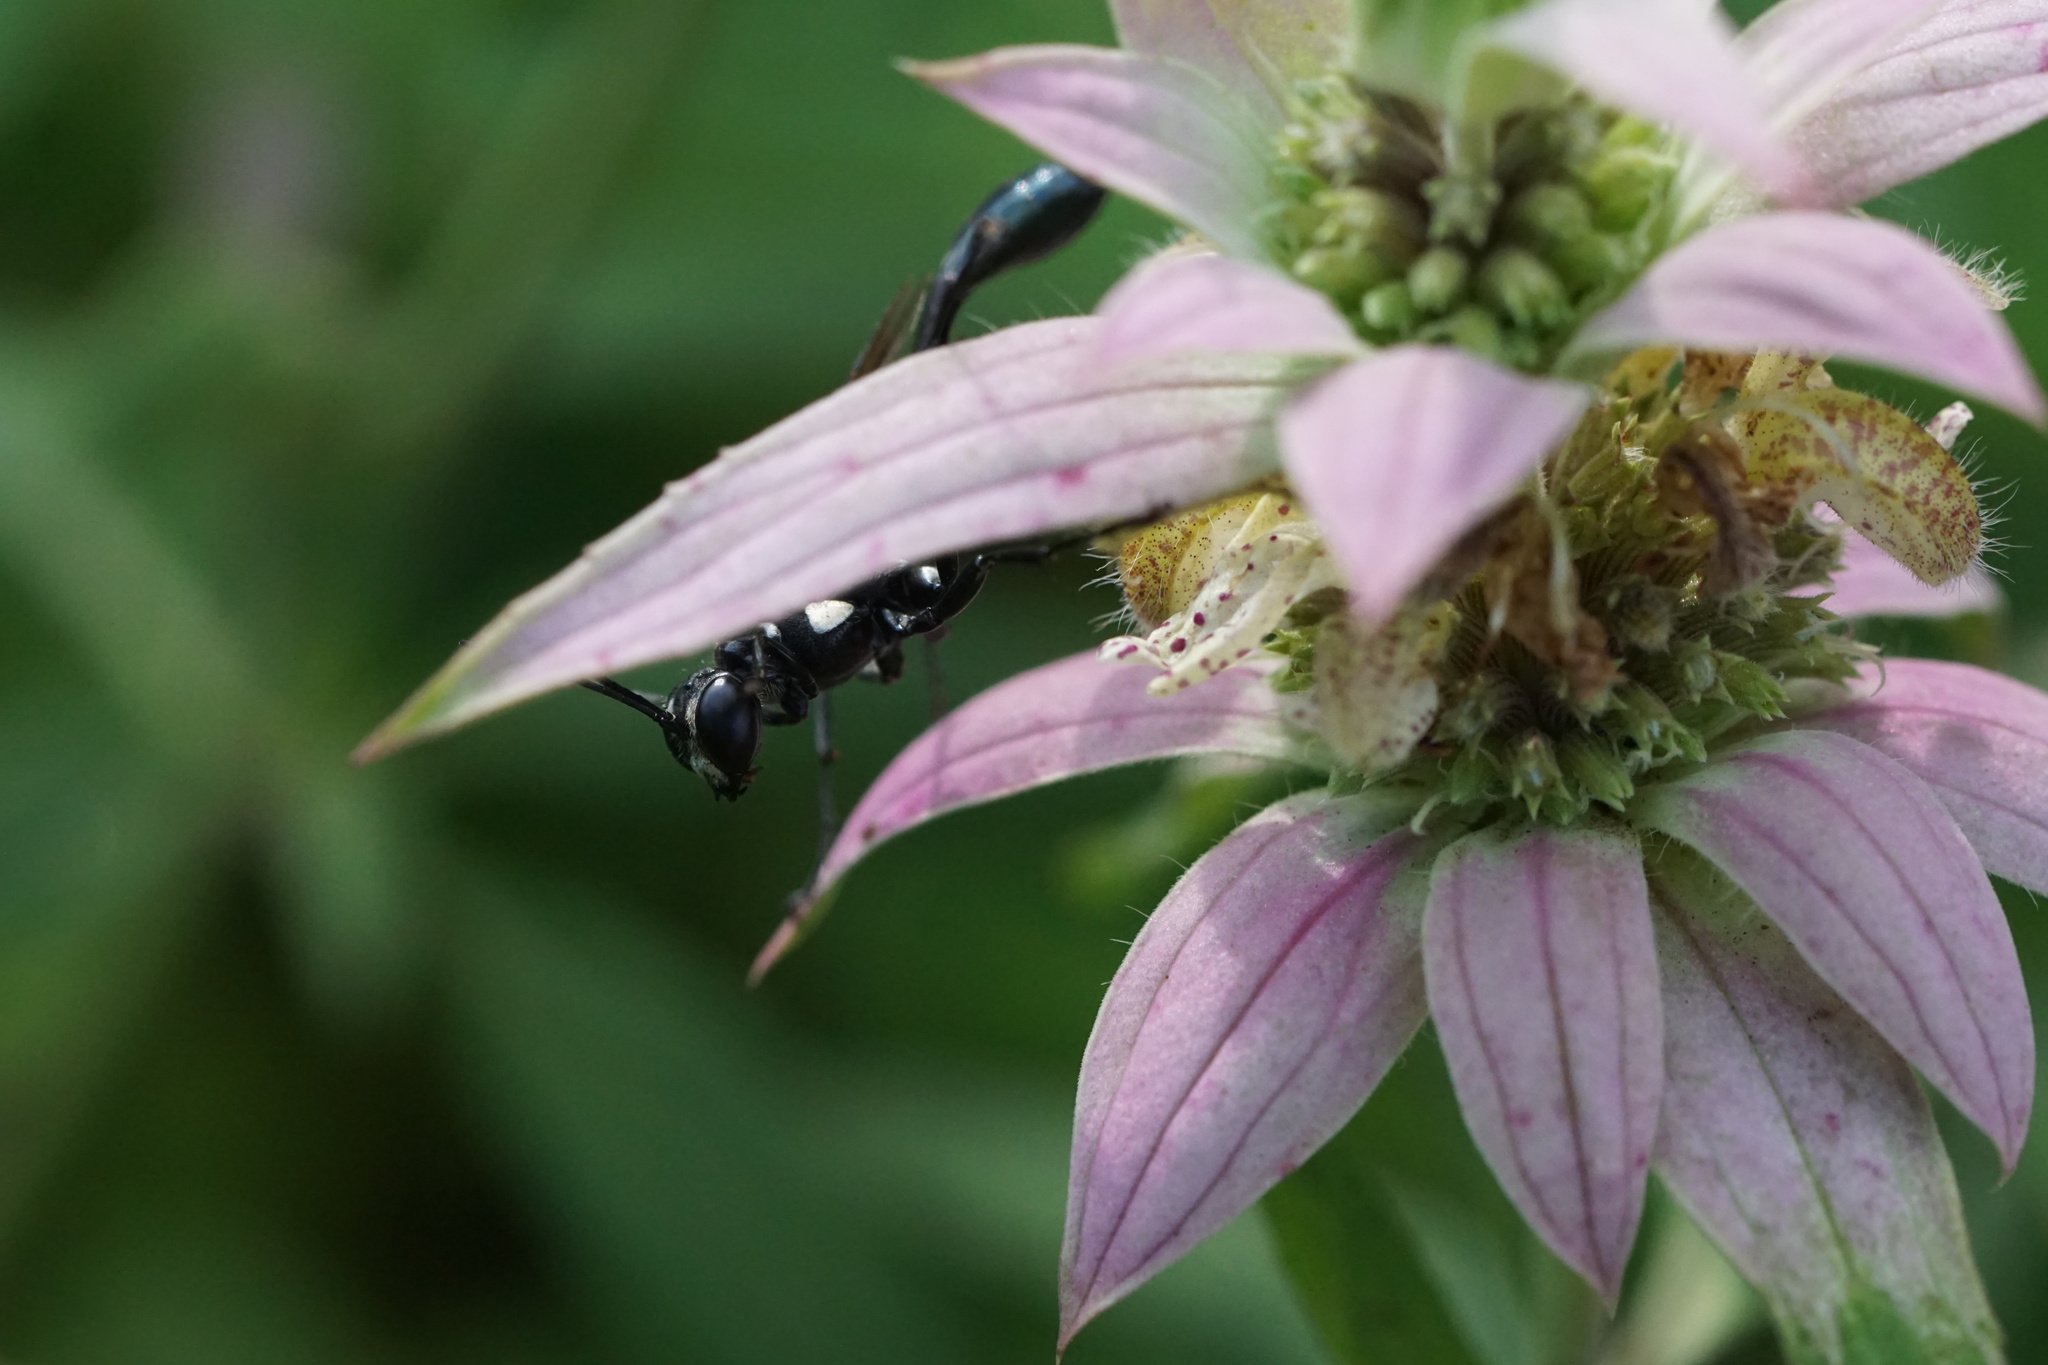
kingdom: Animalia
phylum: Arthropoda
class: Insecta
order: Hymenoptera
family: Sphecidae
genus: Eremnophila
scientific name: Eremnophila aureonotata
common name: Gold-marked thread-waisted wasp
